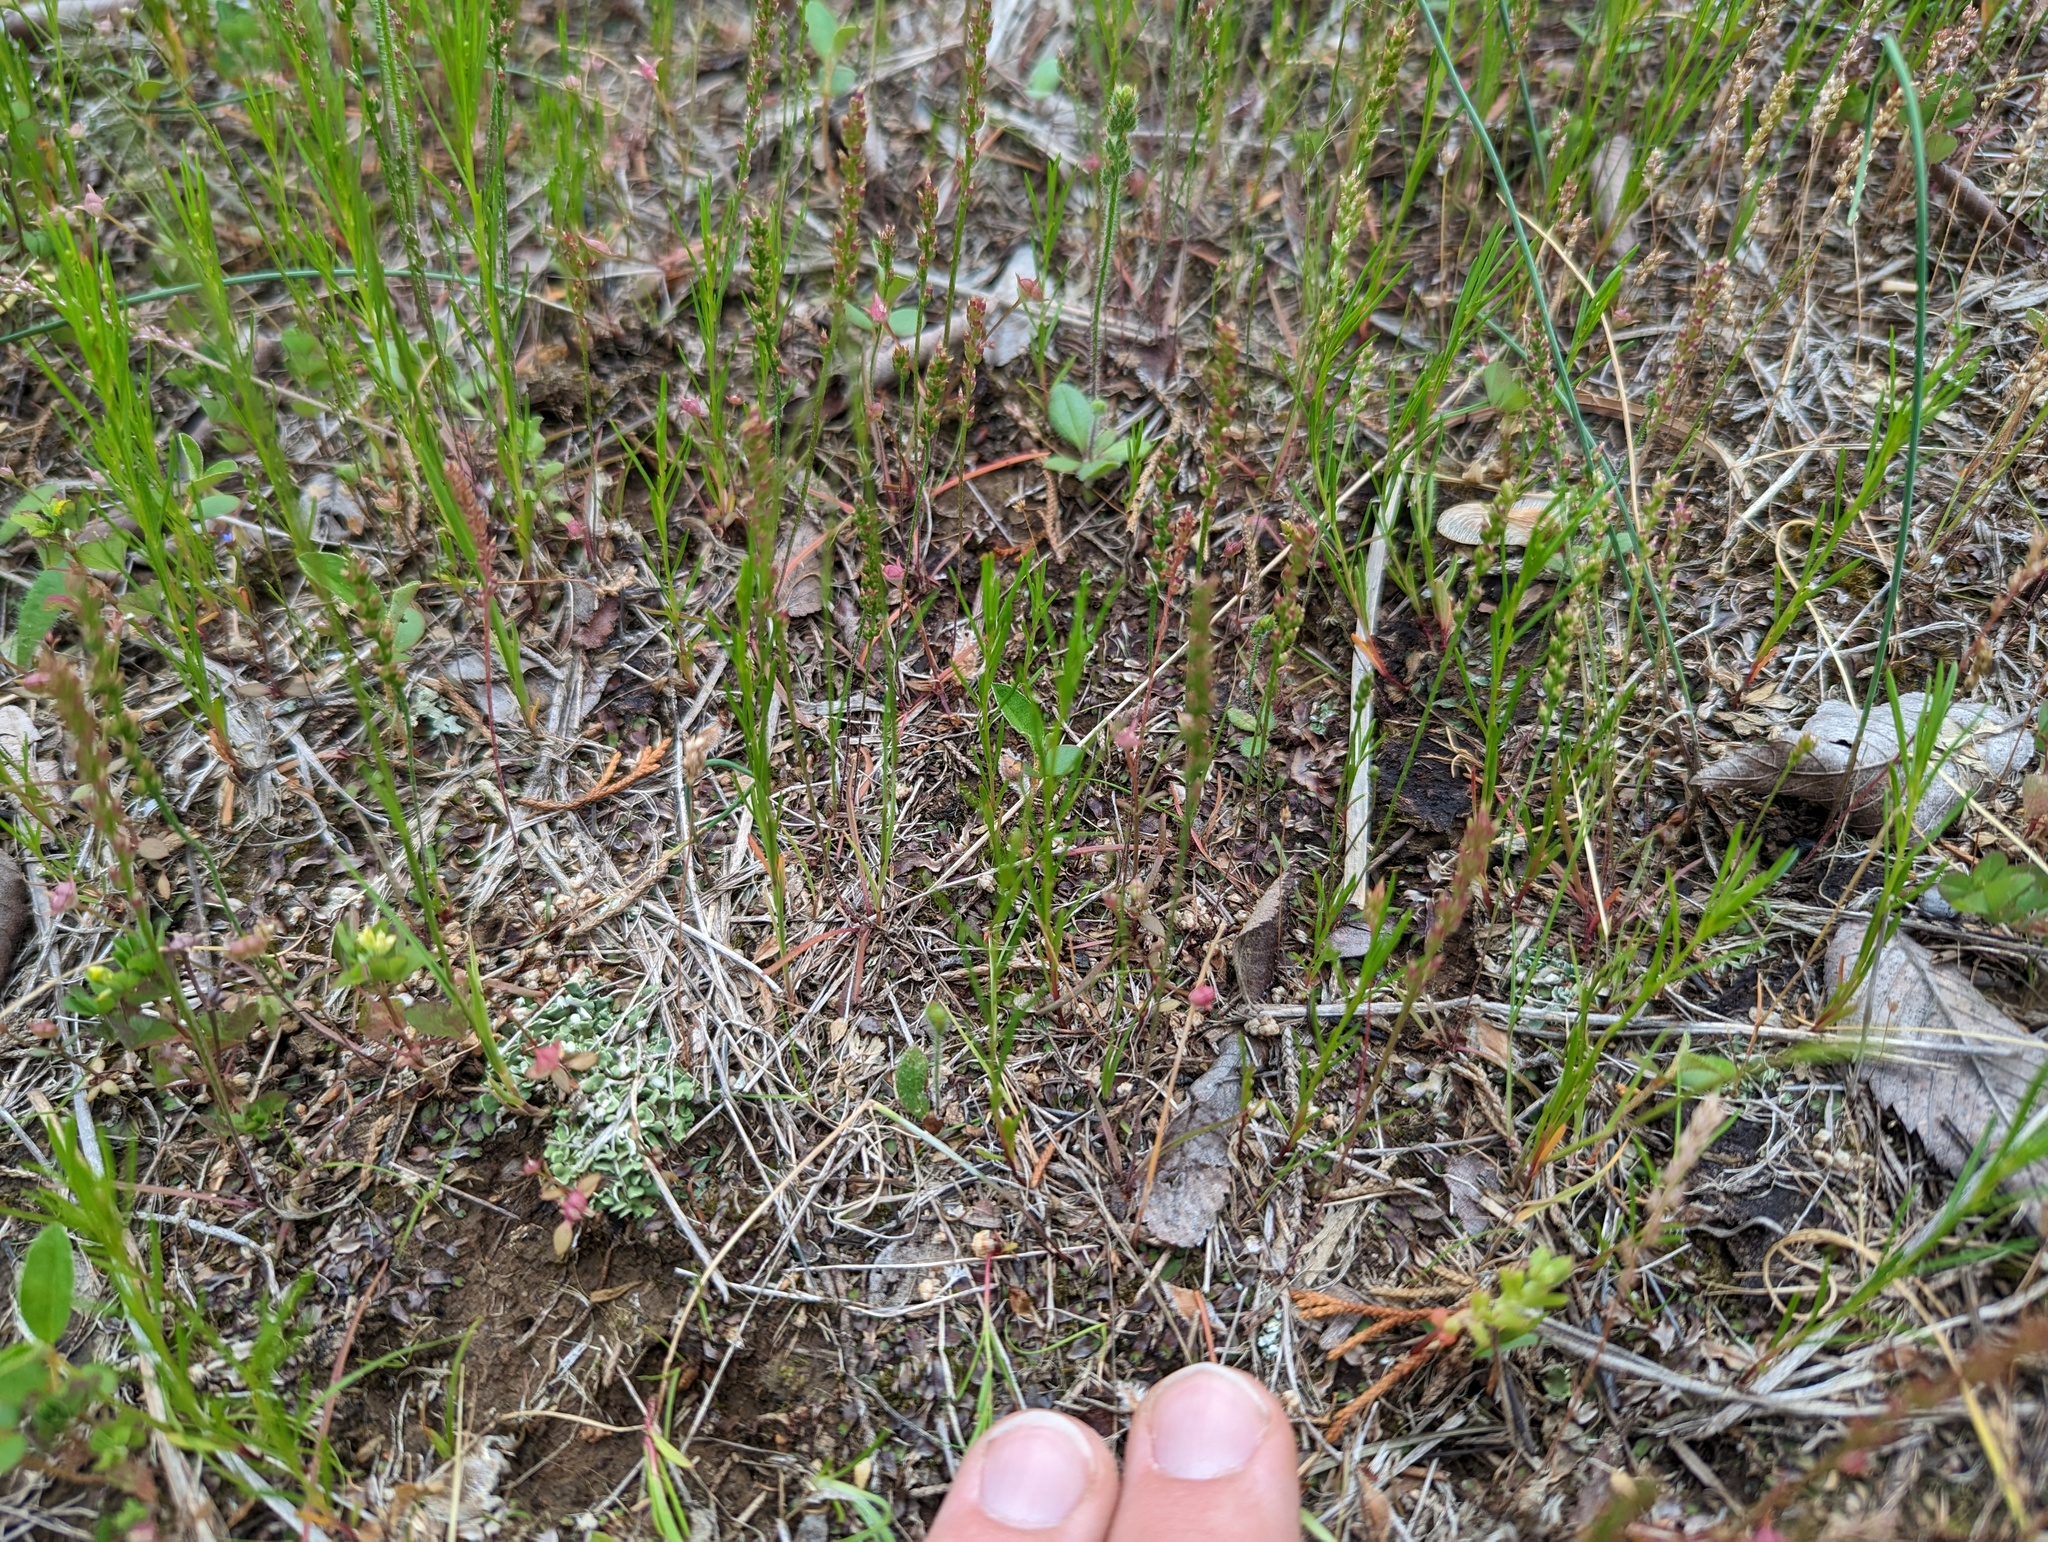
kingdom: Plantae
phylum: Tracheophyta
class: Magnoliopsida
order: Lamiales
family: Plantaginaceae
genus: Plantago
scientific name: Plantago pusilla
